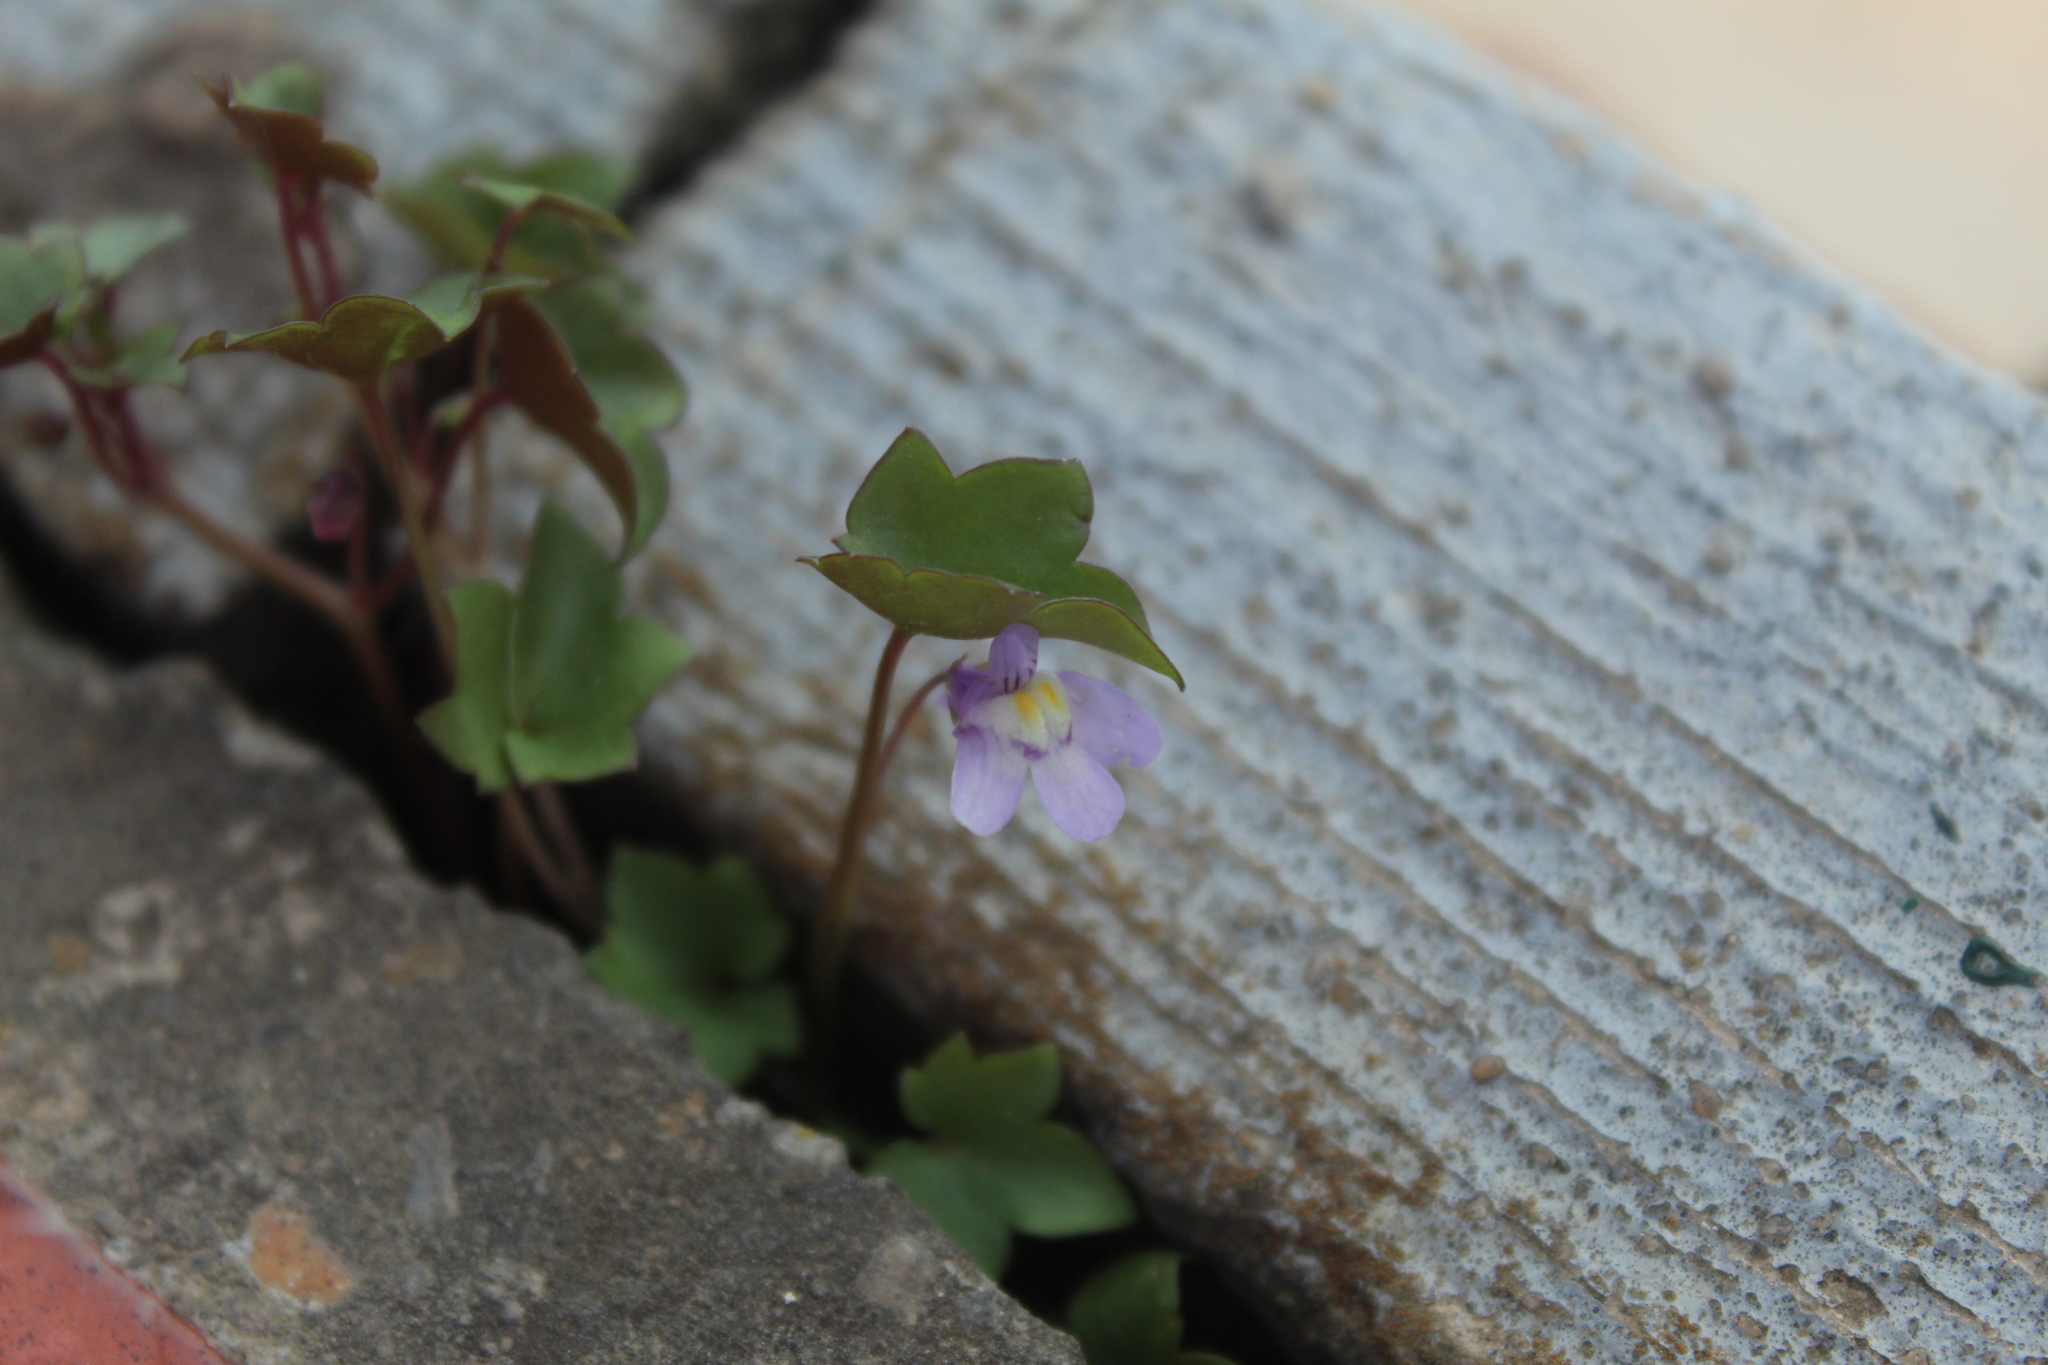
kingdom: Plantae
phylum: Tracheophyta
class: Magnoliopsida
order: Lamiales
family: Plantaginaceae
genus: Cymbalaria
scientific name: Cymbalaria muralis
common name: Ivy-leaved toadflax
